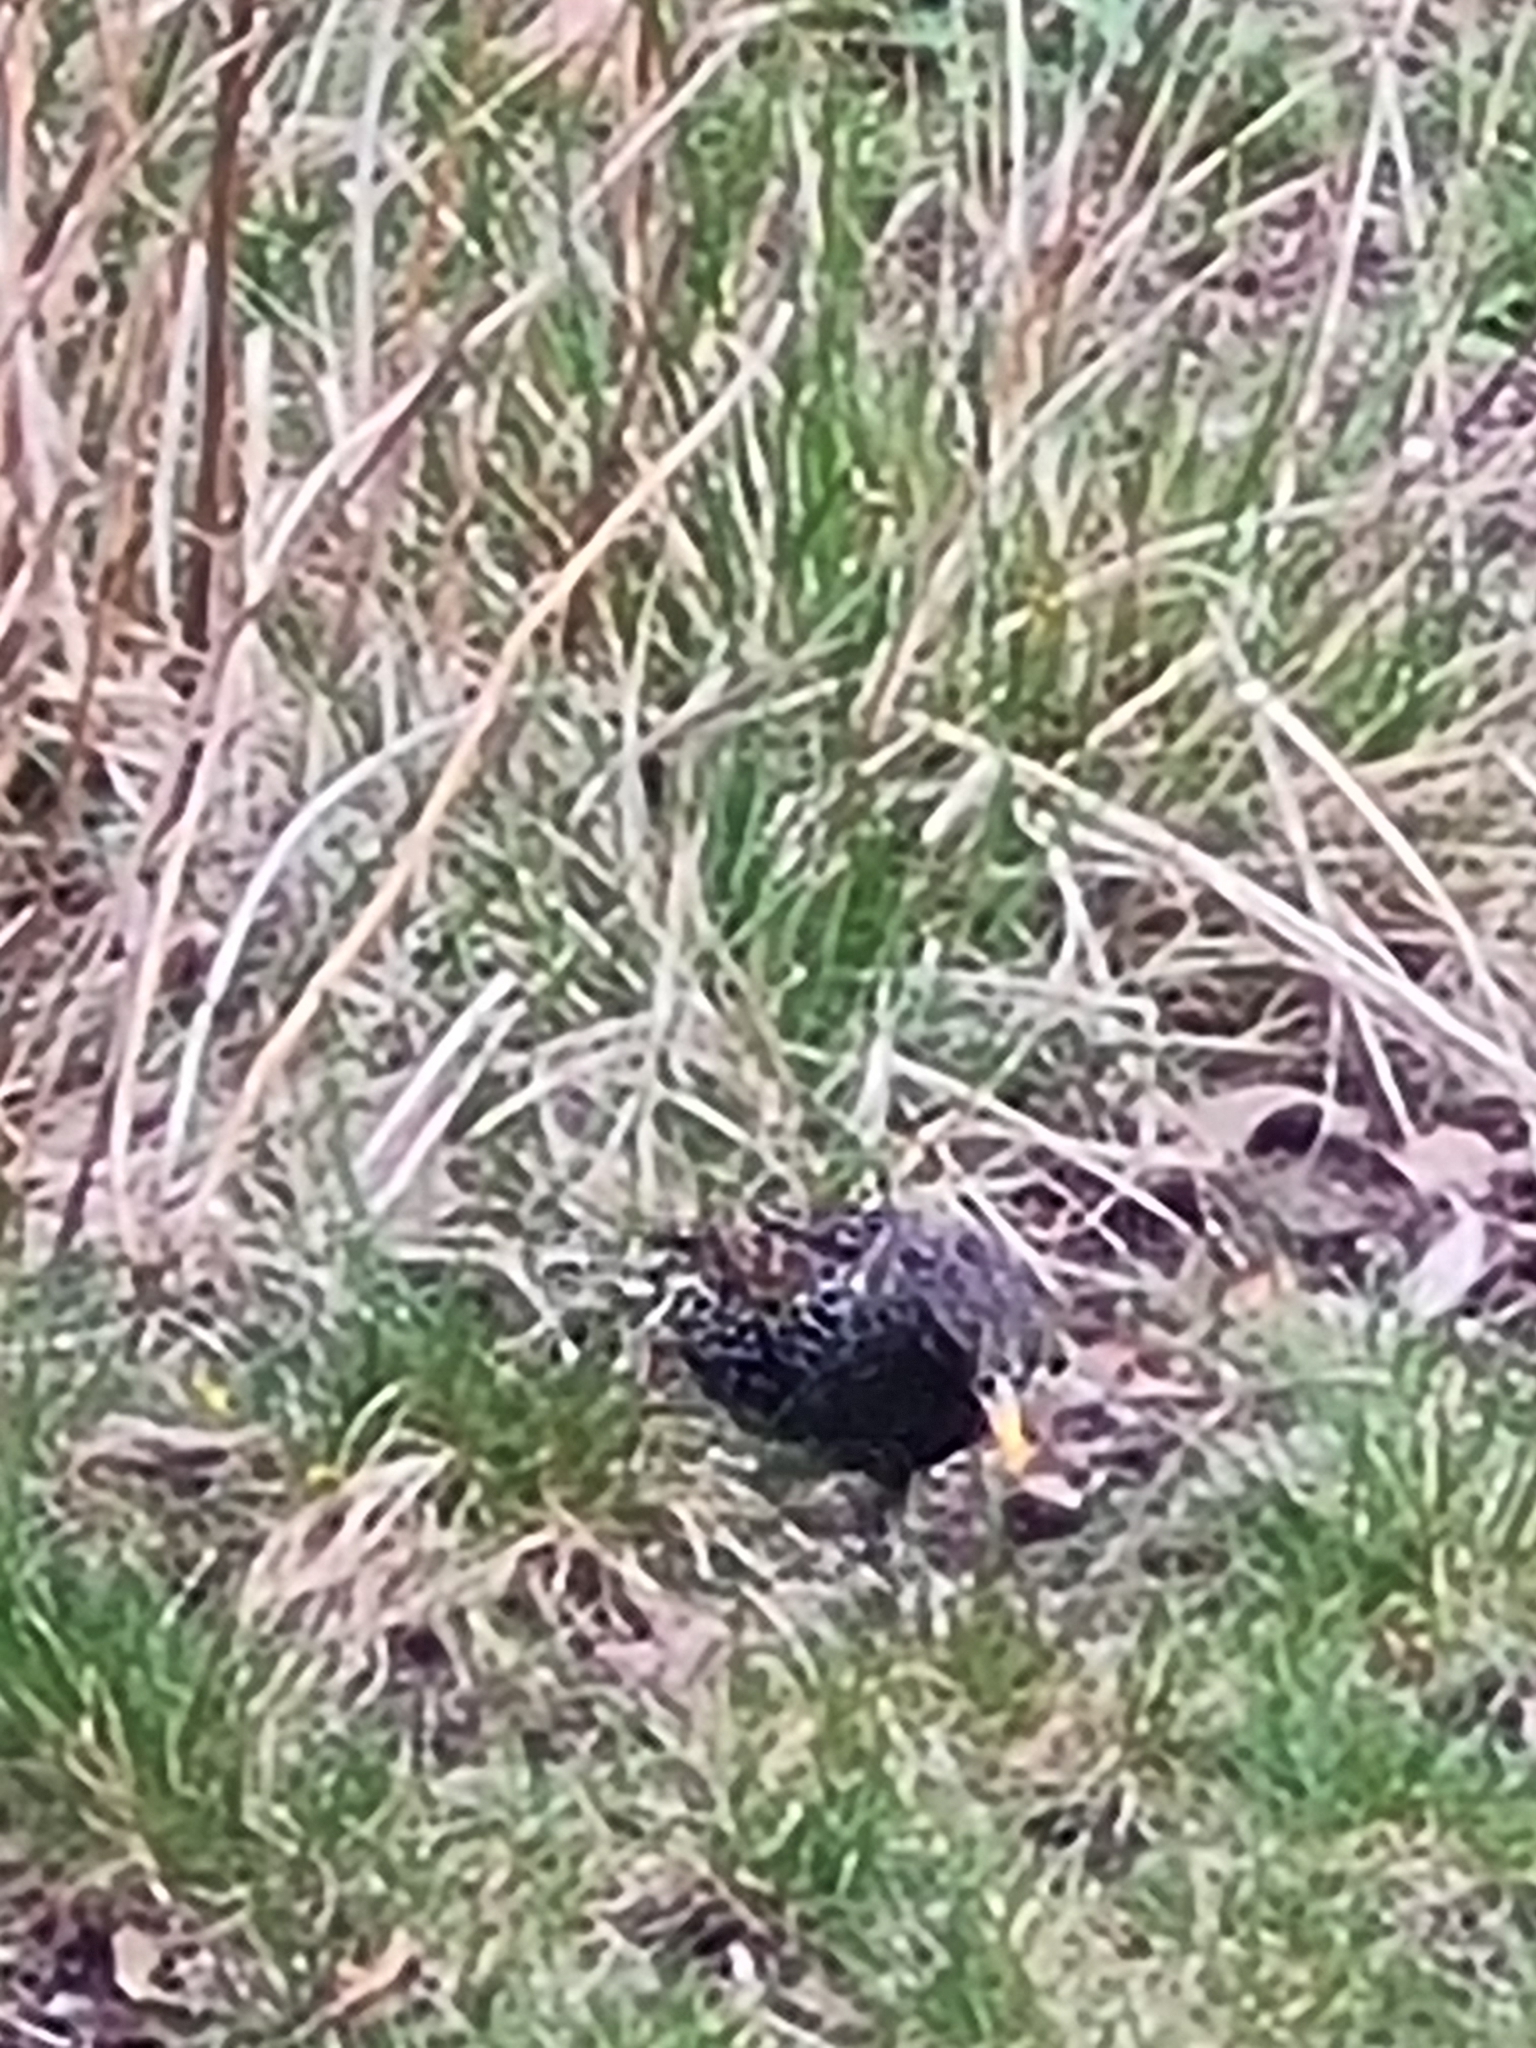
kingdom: Animalia
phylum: Chordata
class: Aves
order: Passeriformes
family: Sturnidae
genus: Sturnus
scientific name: Sturnus vulgaris
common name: Common starling
